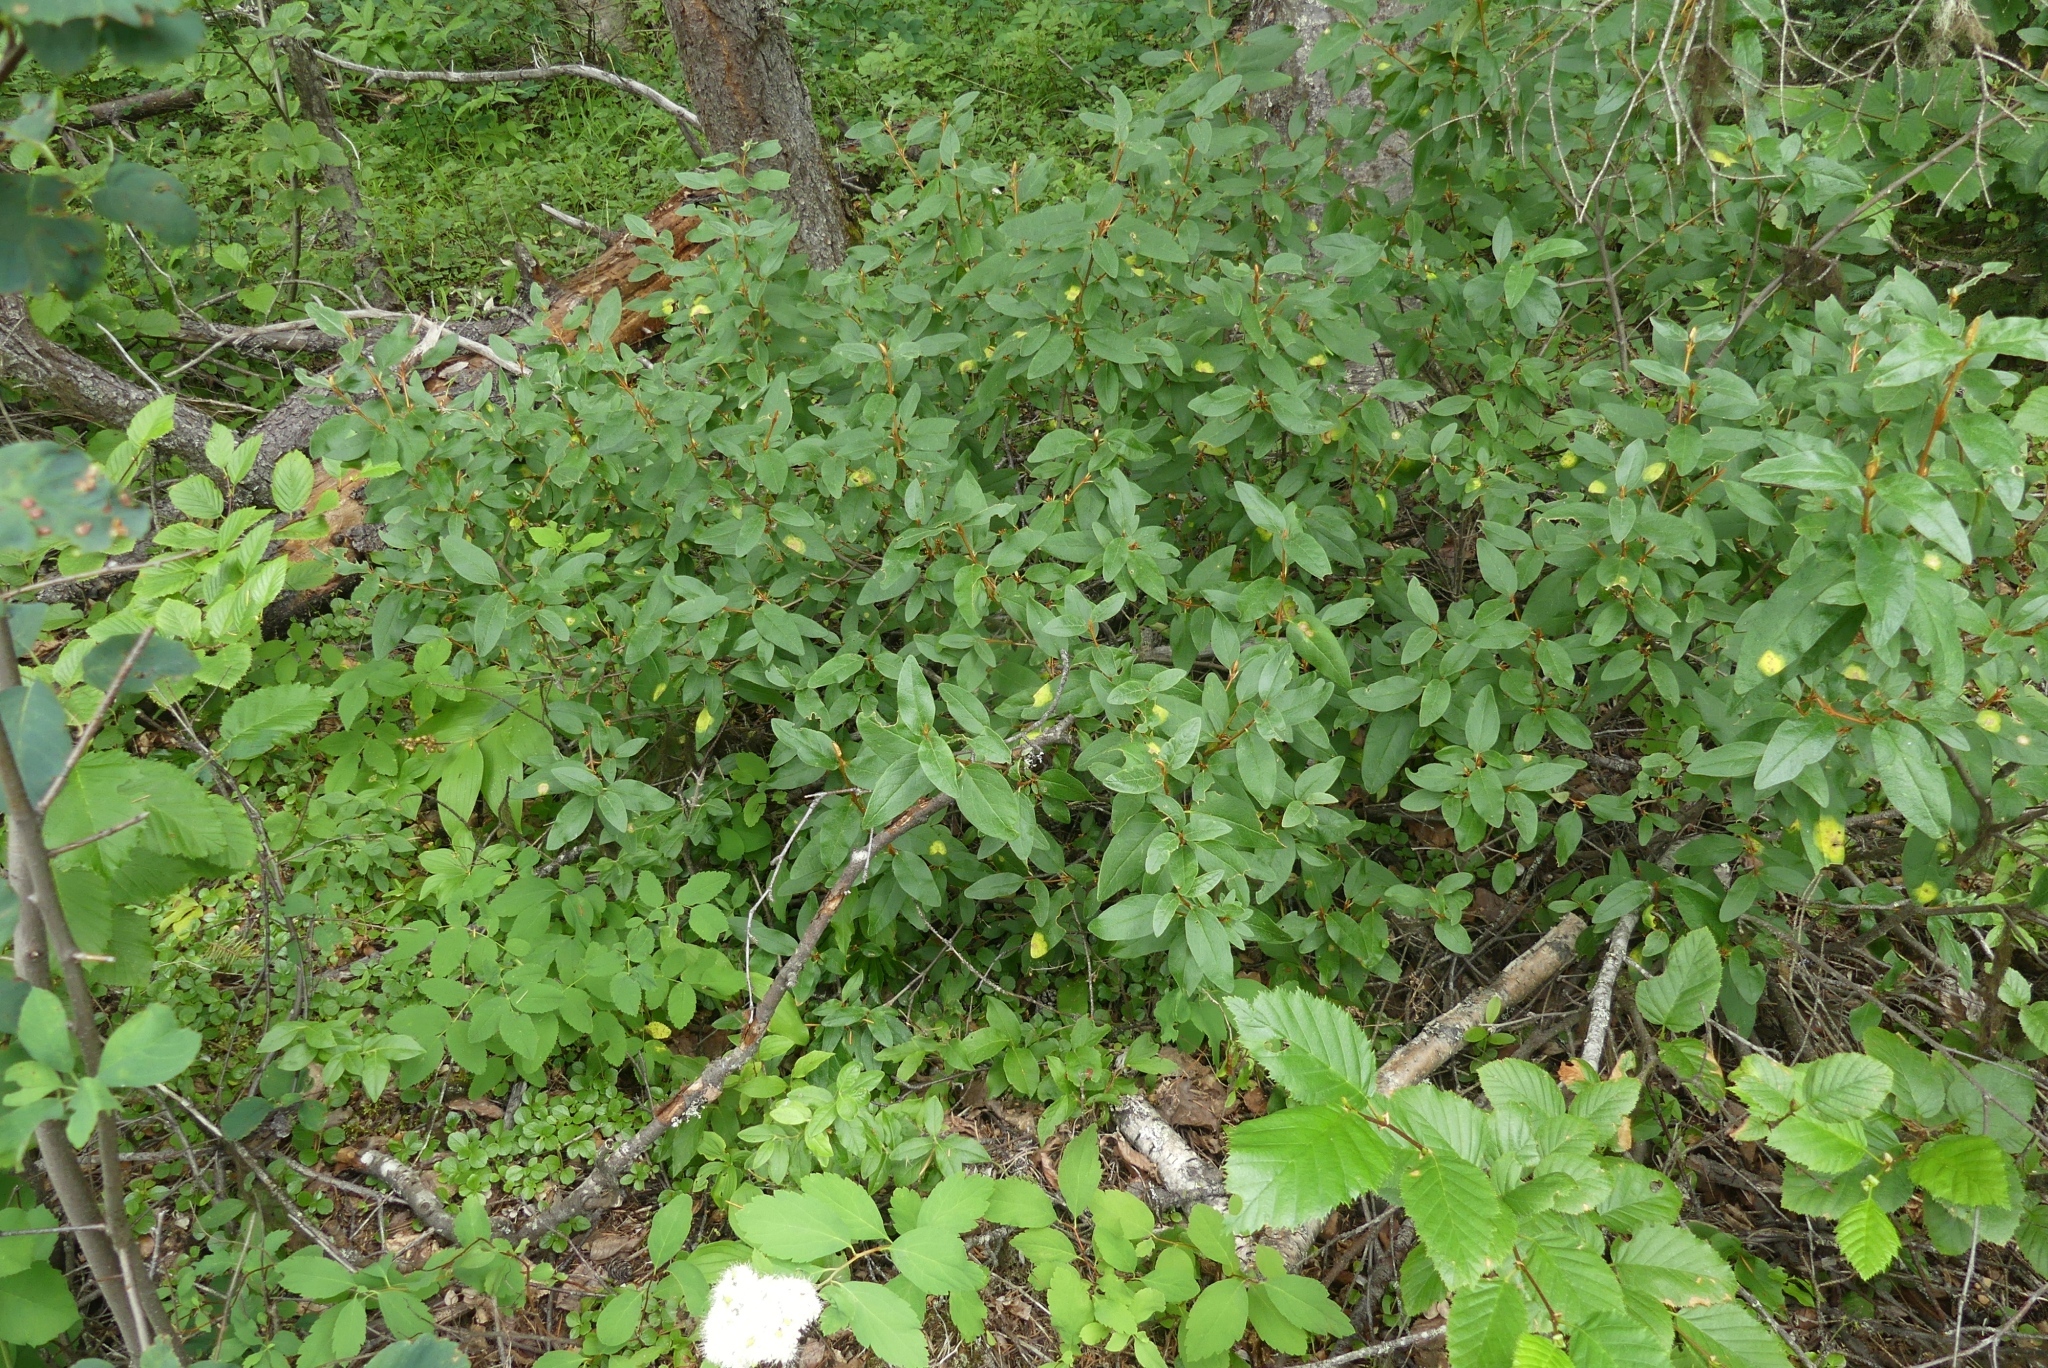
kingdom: Plantae
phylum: Tracheophyta
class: Magnoliopsida
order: Rosales
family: Elaeagnaceae
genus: Shepherdia
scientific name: Shepherdia canadensis
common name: Soapberry
